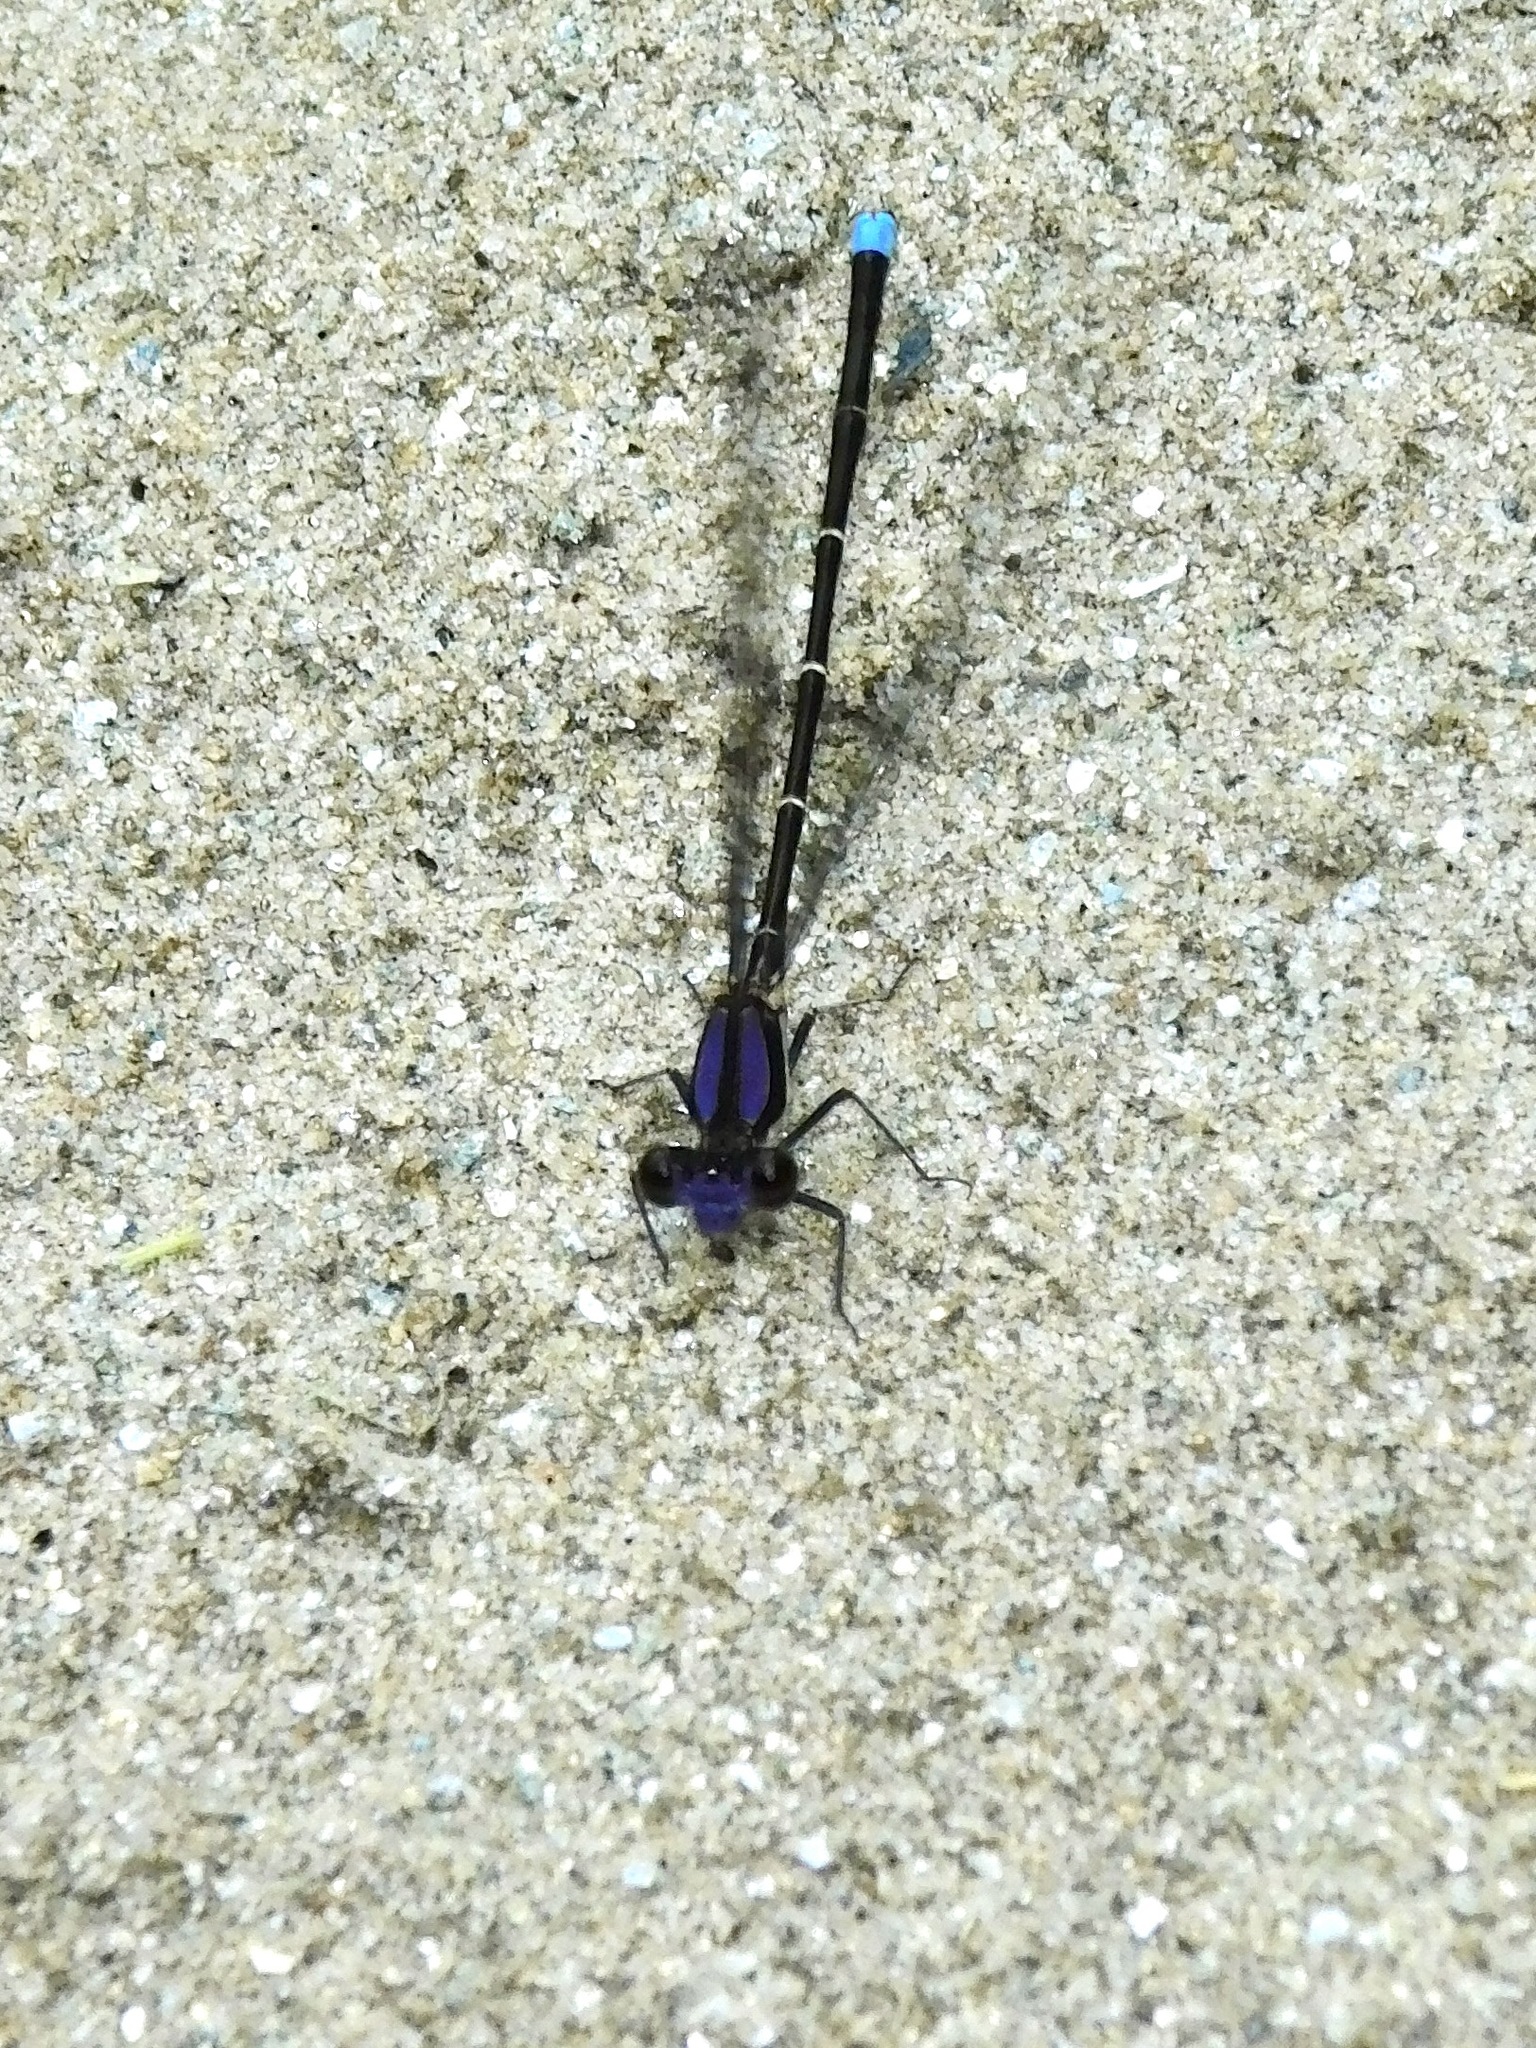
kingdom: Animalia
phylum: Arthropoda
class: Insecta
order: Odonata
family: Coenagrionidae
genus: Argia
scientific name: Argia tibialis
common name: Blue-tipped dancer
